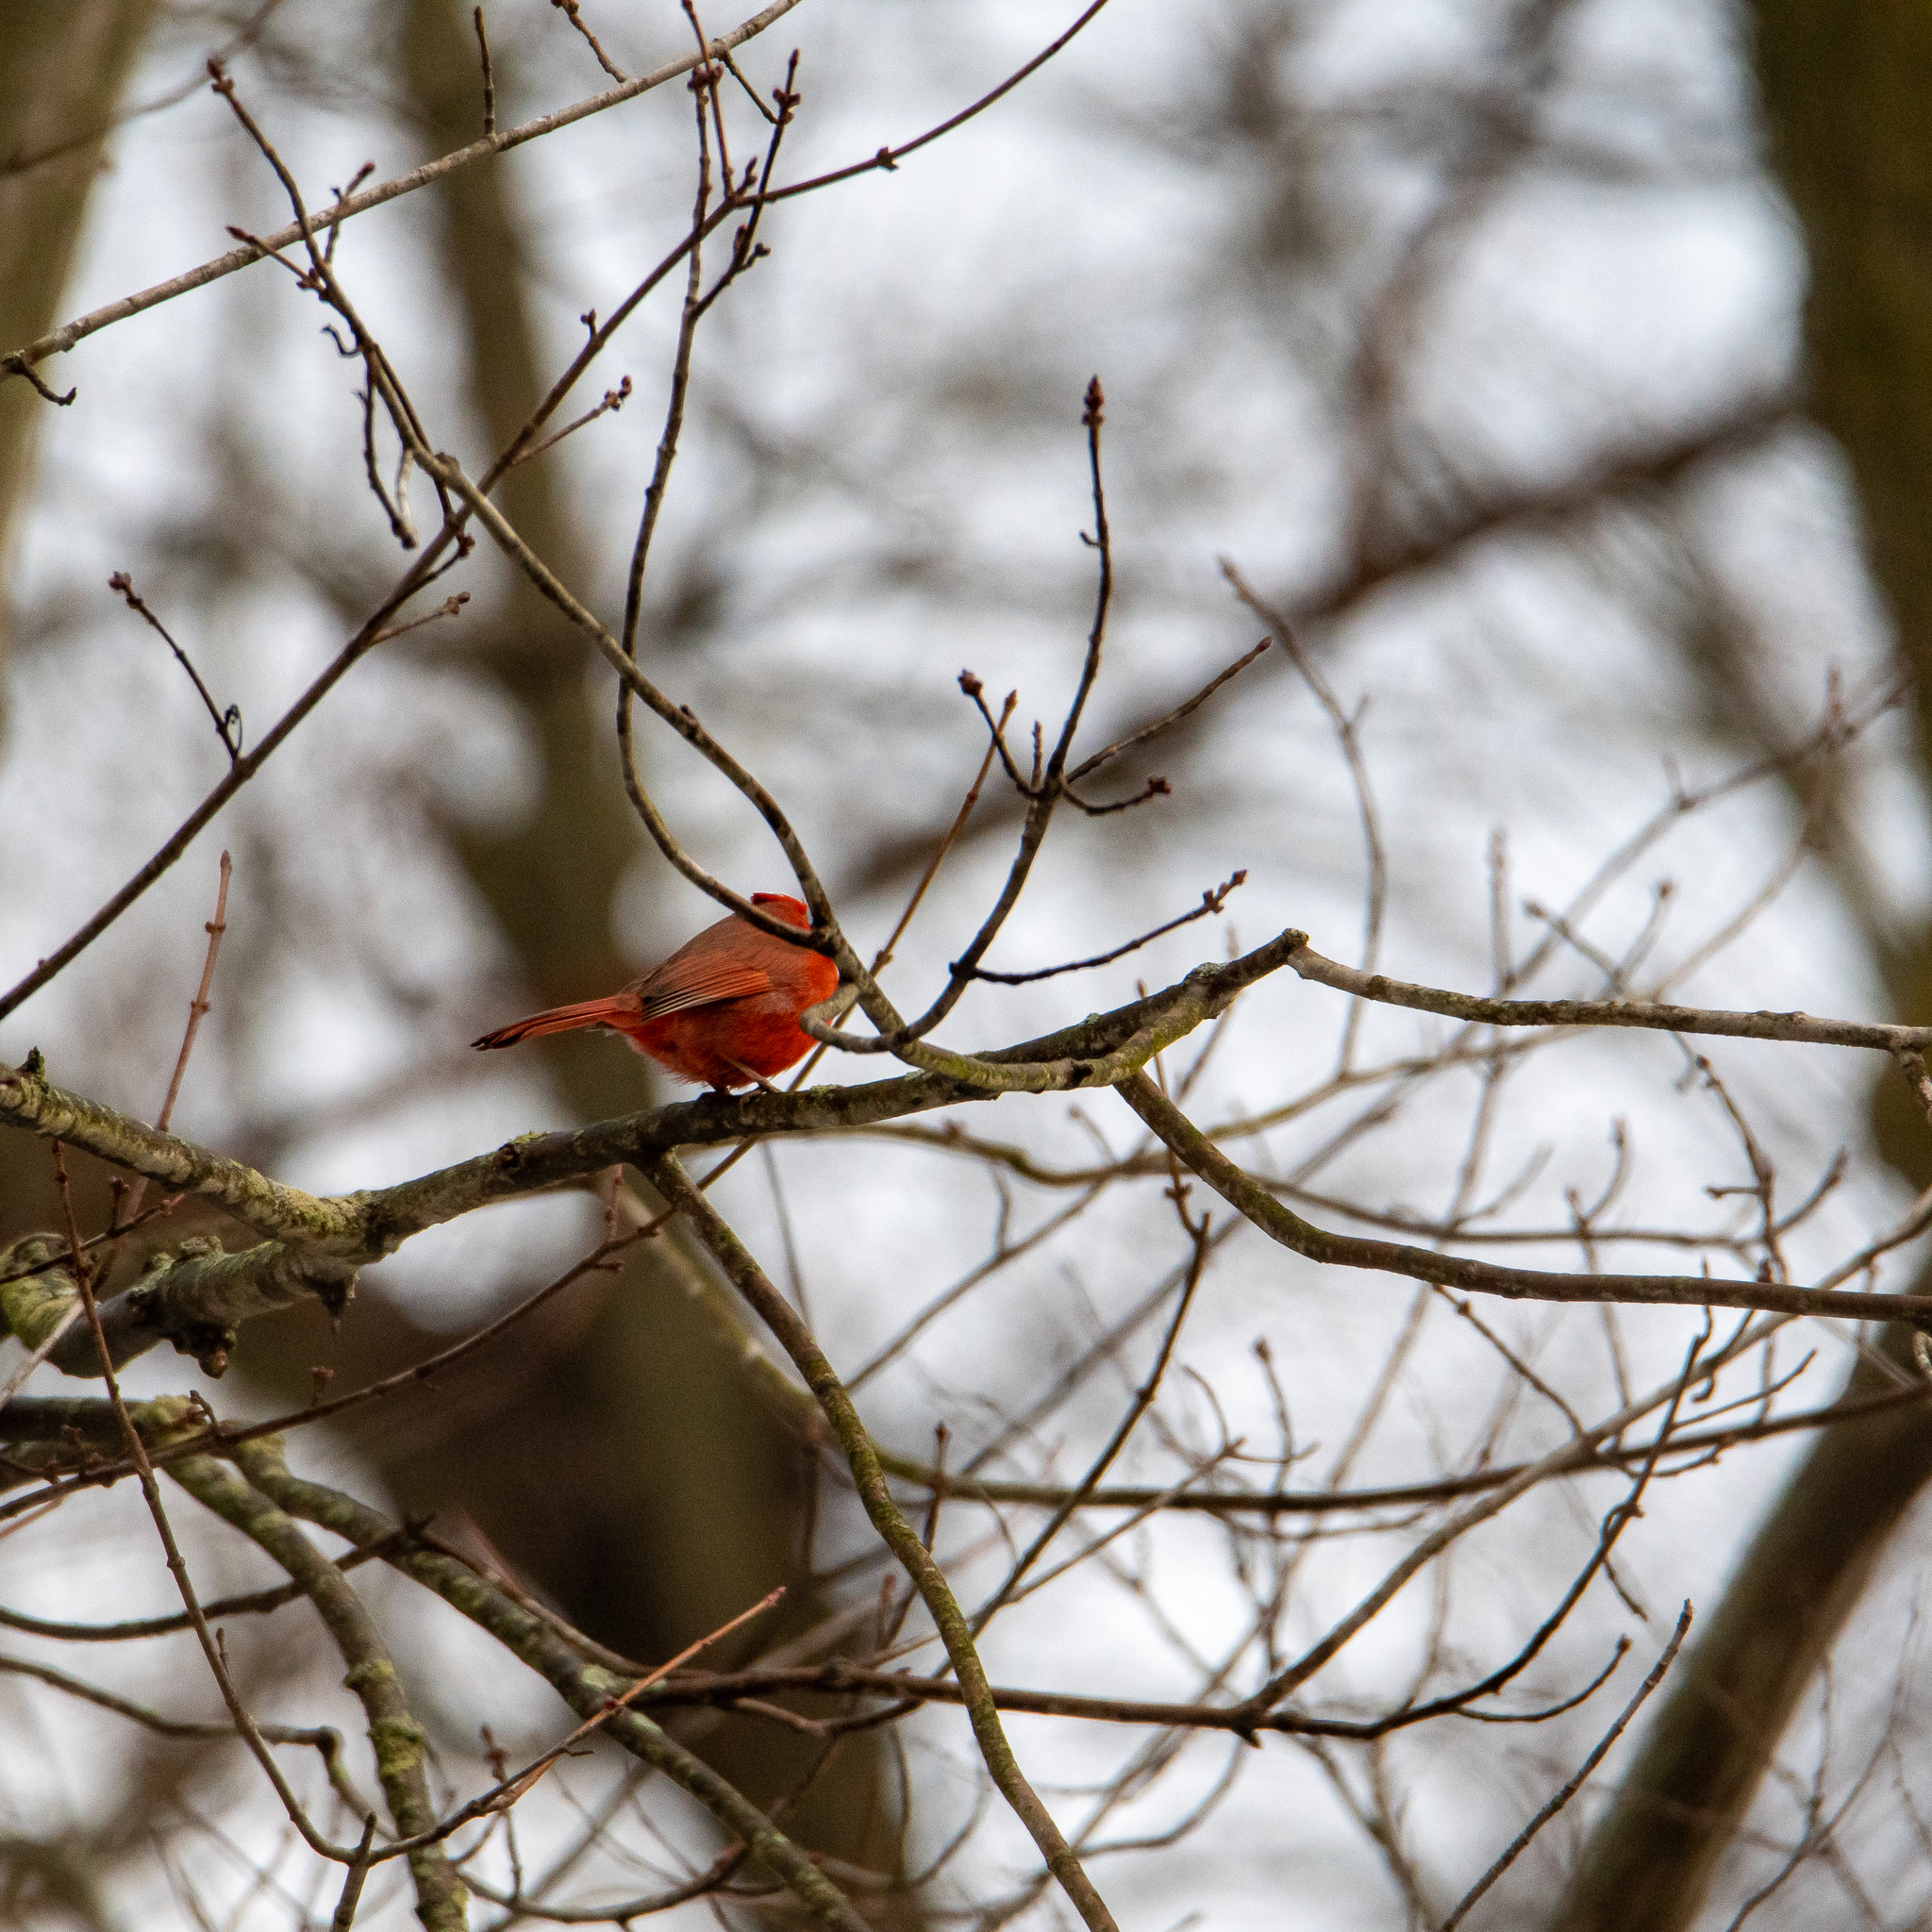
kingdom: Animalia
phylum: Chordata
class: Aves
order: Passeriformes
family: Cardinalidae
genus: Cardinalis
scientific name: Cardinalis cardinalis
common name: Northern cardinal
